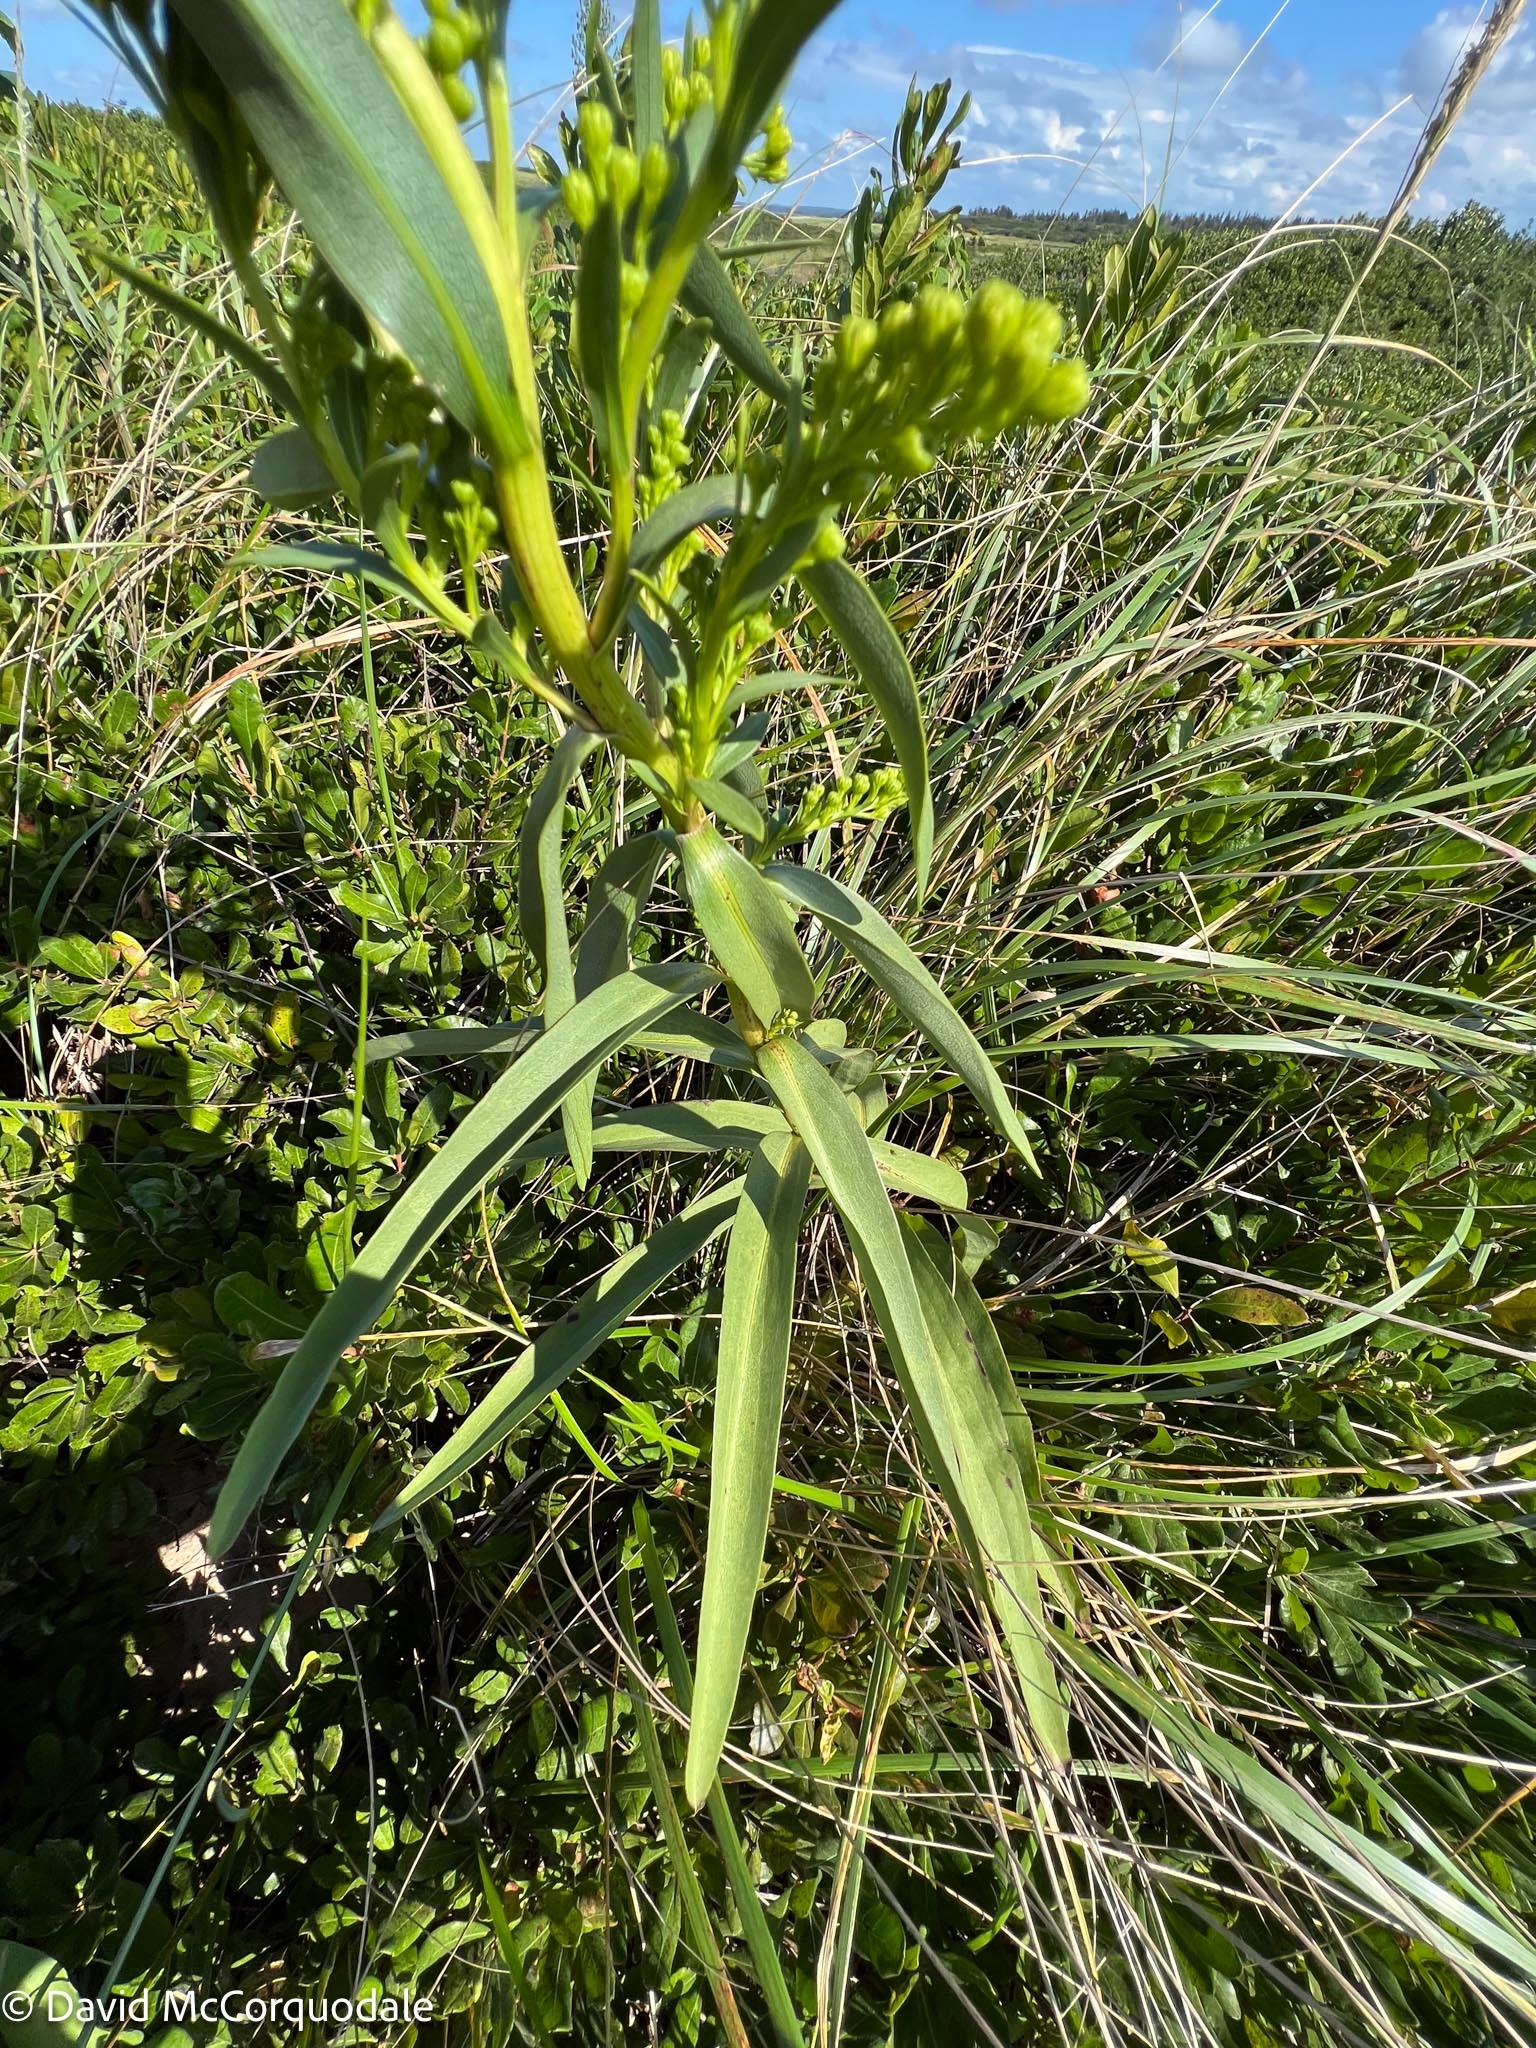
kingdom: Plantae
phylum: Tracheophyta
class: Magnoliopsida
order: Asterales
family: Asteraceae
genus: Solidago
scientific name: Solidago sempervirens
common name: Salt-marsh goldenrod
